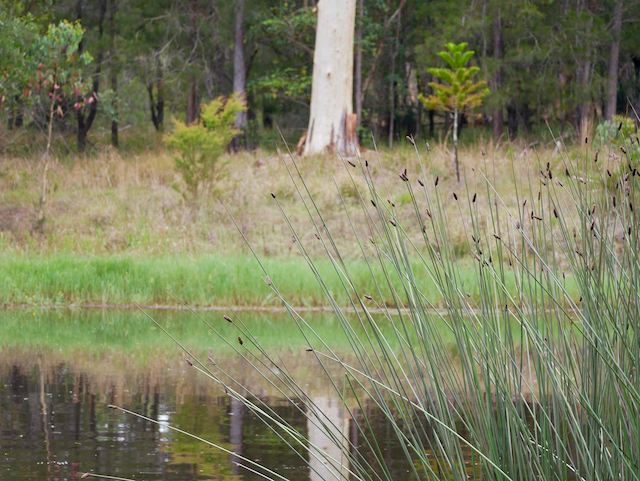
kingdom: Plantae
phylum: Tracheophyta
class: Liliopsida
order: Poales
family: Cyperaceae
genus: Lepironia
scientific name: Lepironia articulata
